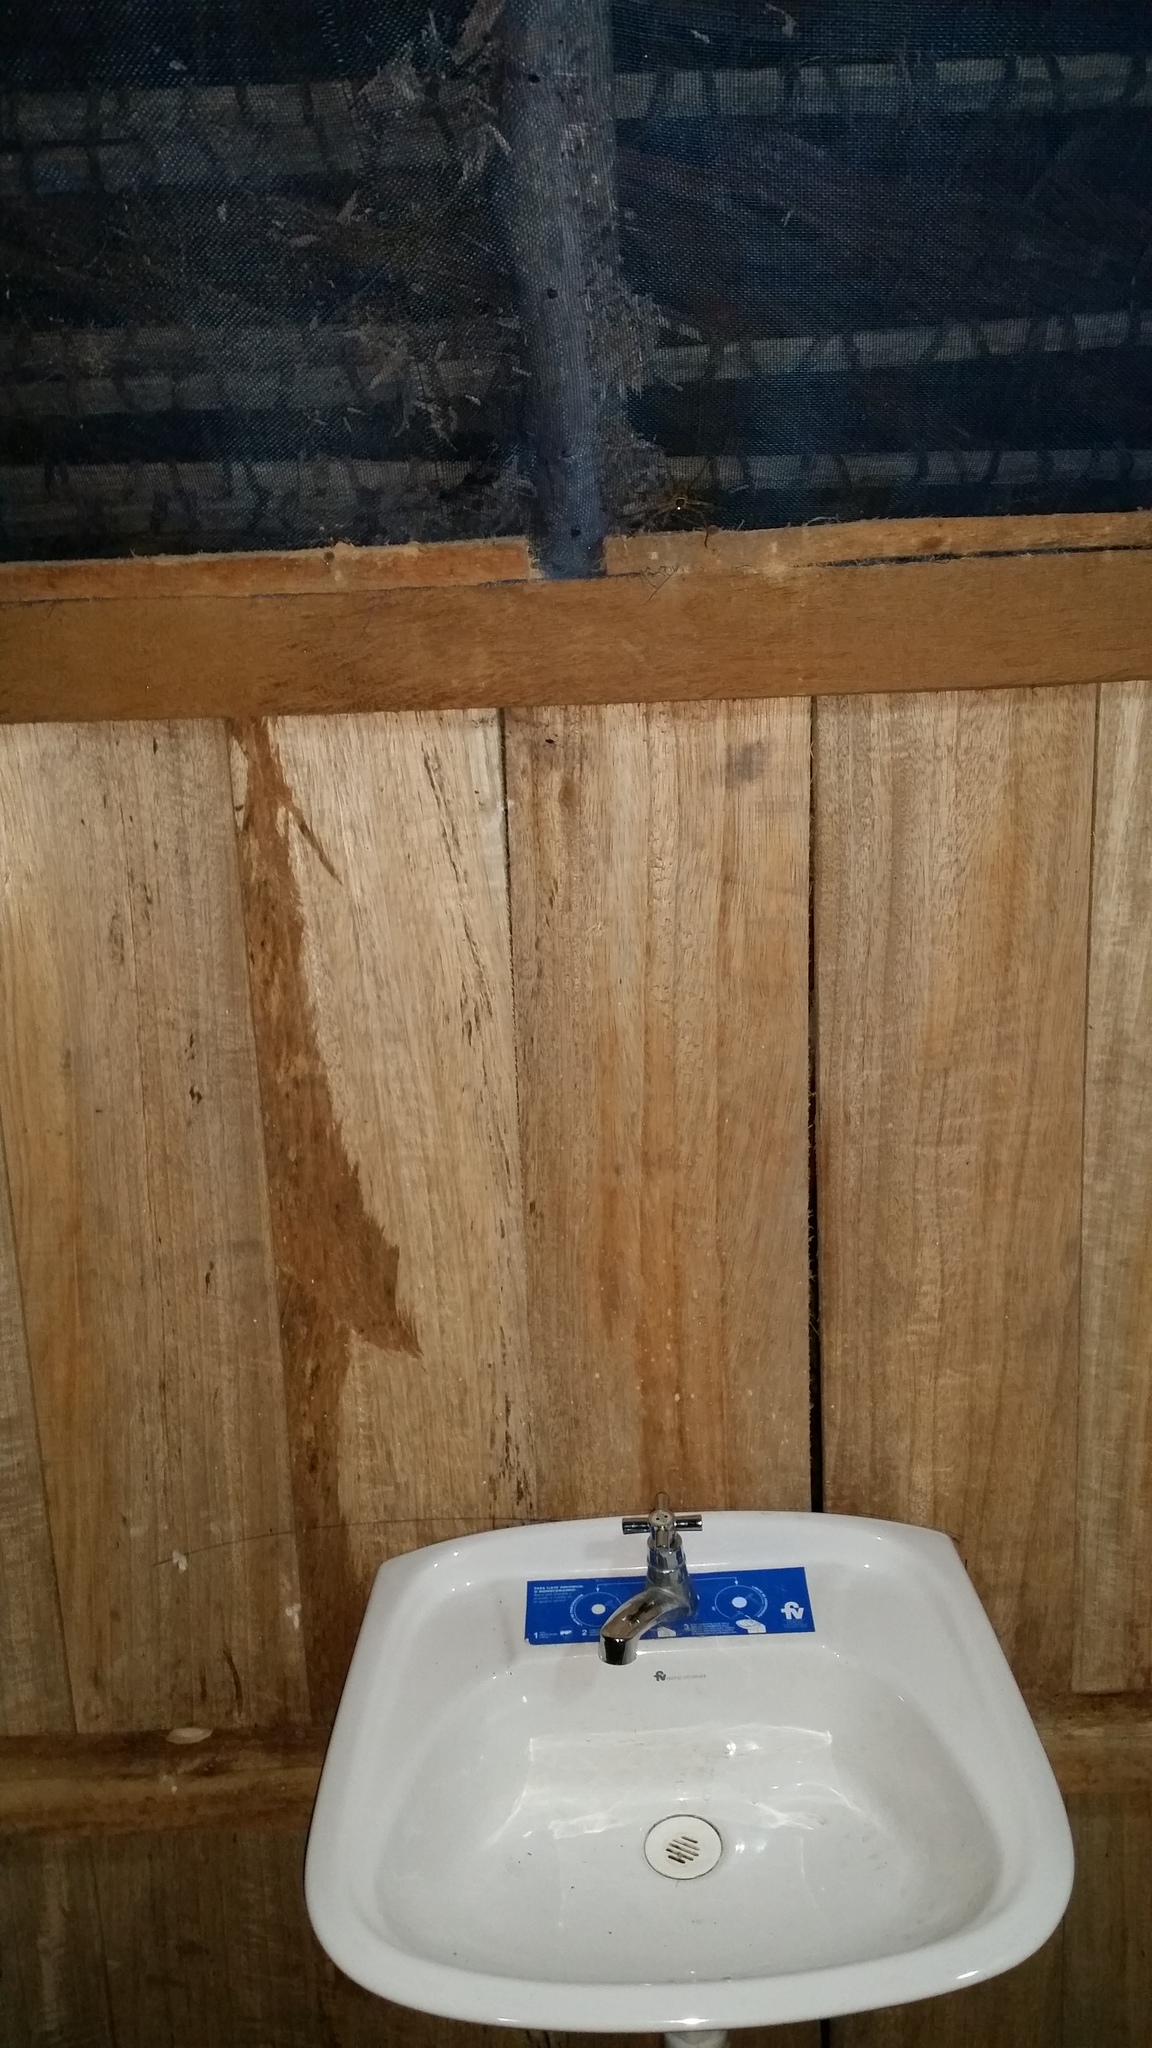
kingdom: Animalia
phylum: Arthropoda
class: Arachnida
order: Araneae
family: Sparassidae
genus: Heteropoda
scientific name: Heteropoda venatoria
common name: Huntsman spider
